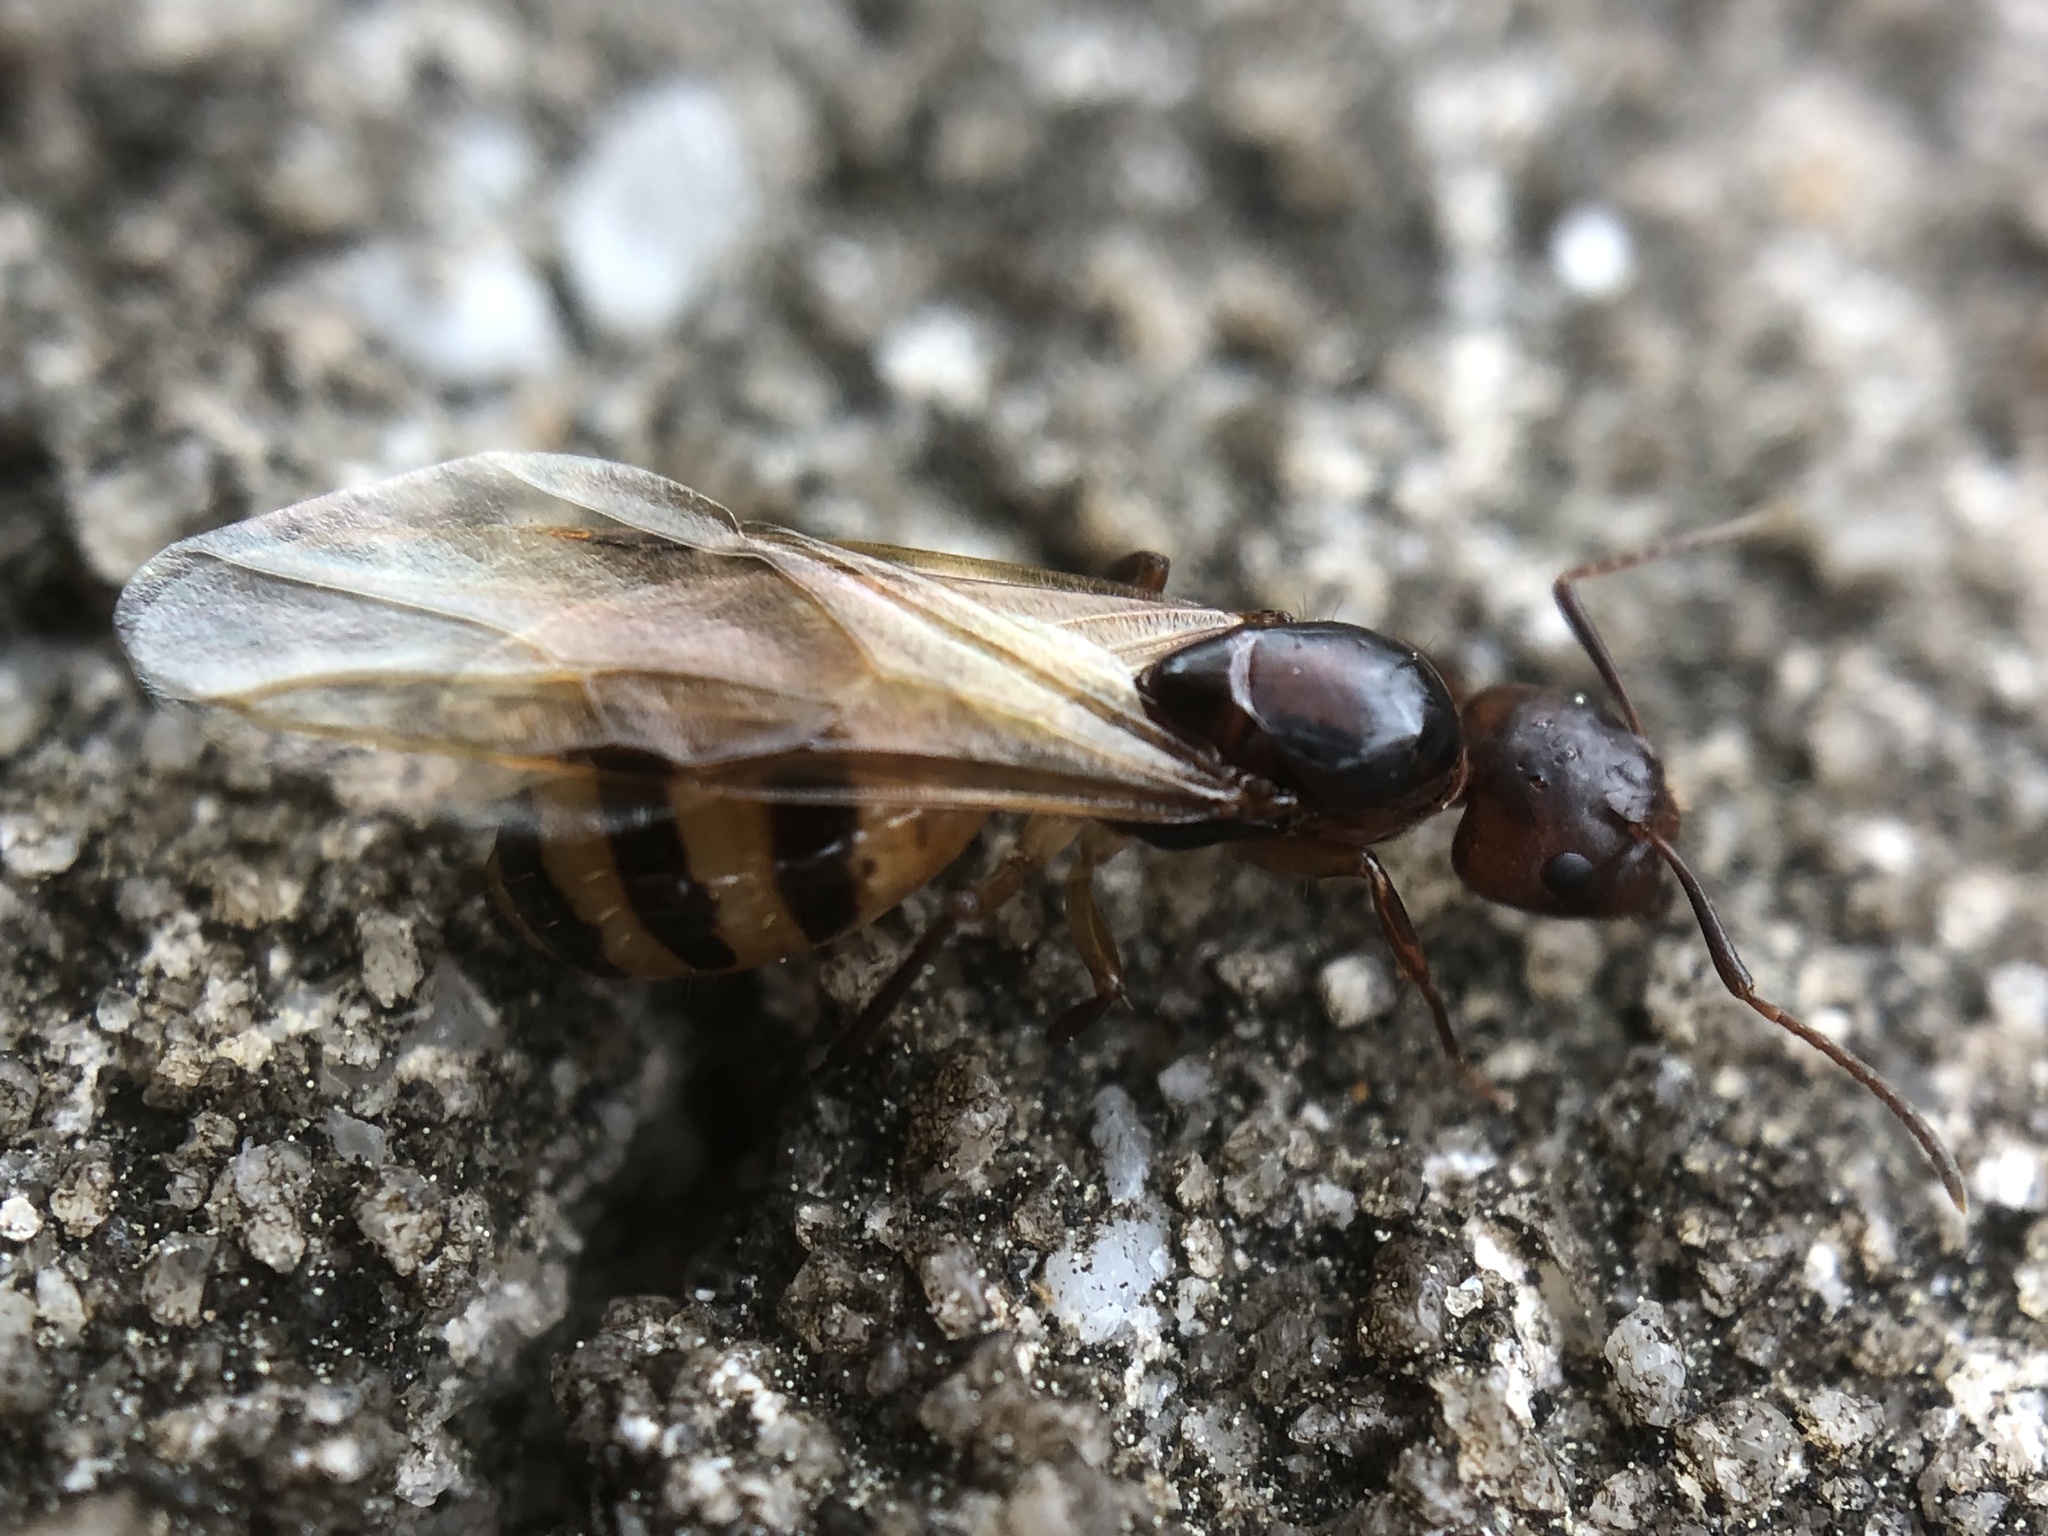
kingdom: Animalia
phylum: Arthropoda
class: Insecta
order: Hymenoptera
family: Formicidae
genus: Camponotus
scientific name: Camponotus subbarbatus
